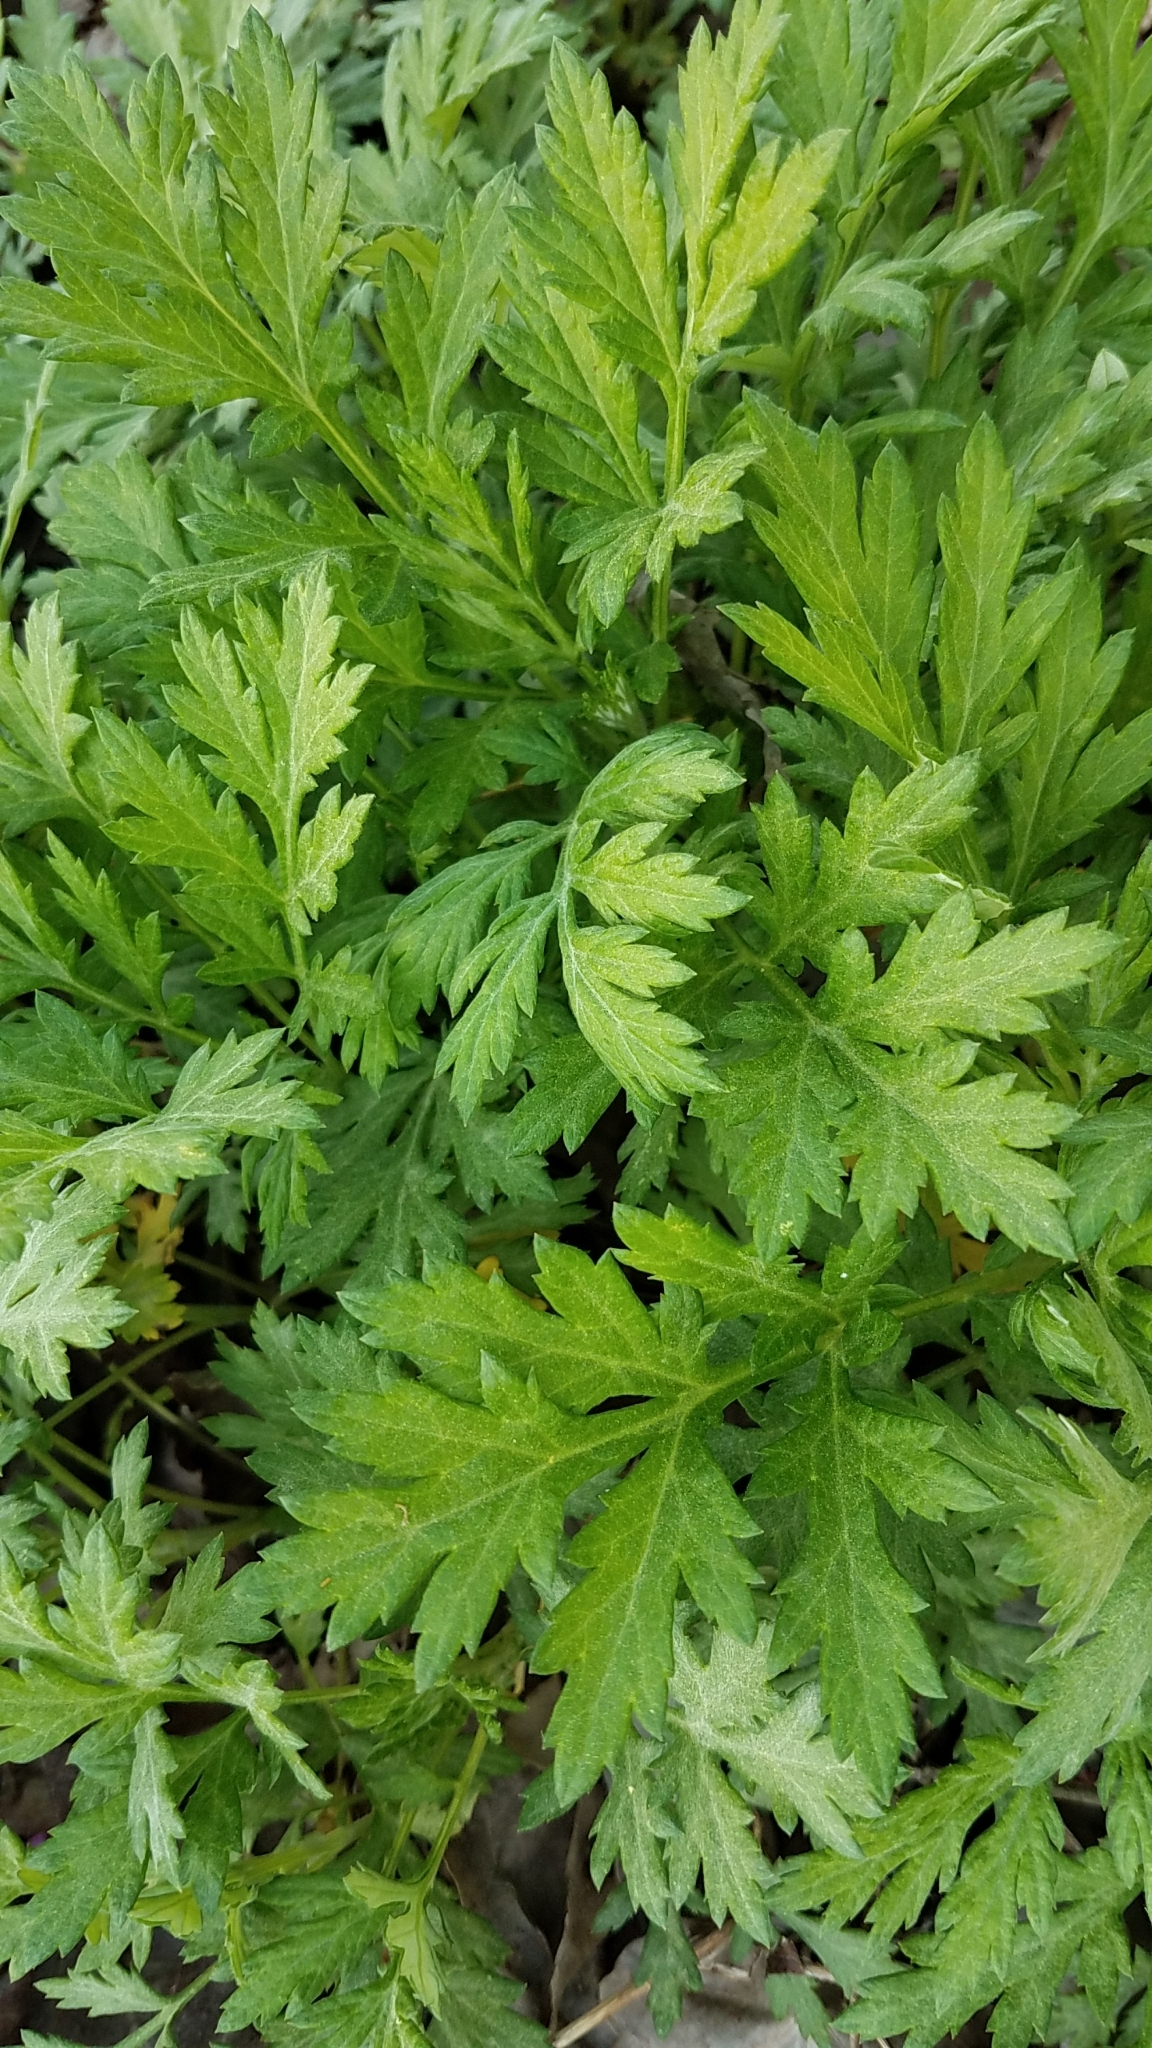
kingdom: Plantae
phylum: Tracheophyta
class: Magnoliopsida
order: Asterales
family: Asteraceae
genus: Artemisia
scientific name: Artemisia vulgaris
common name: Mugwort
